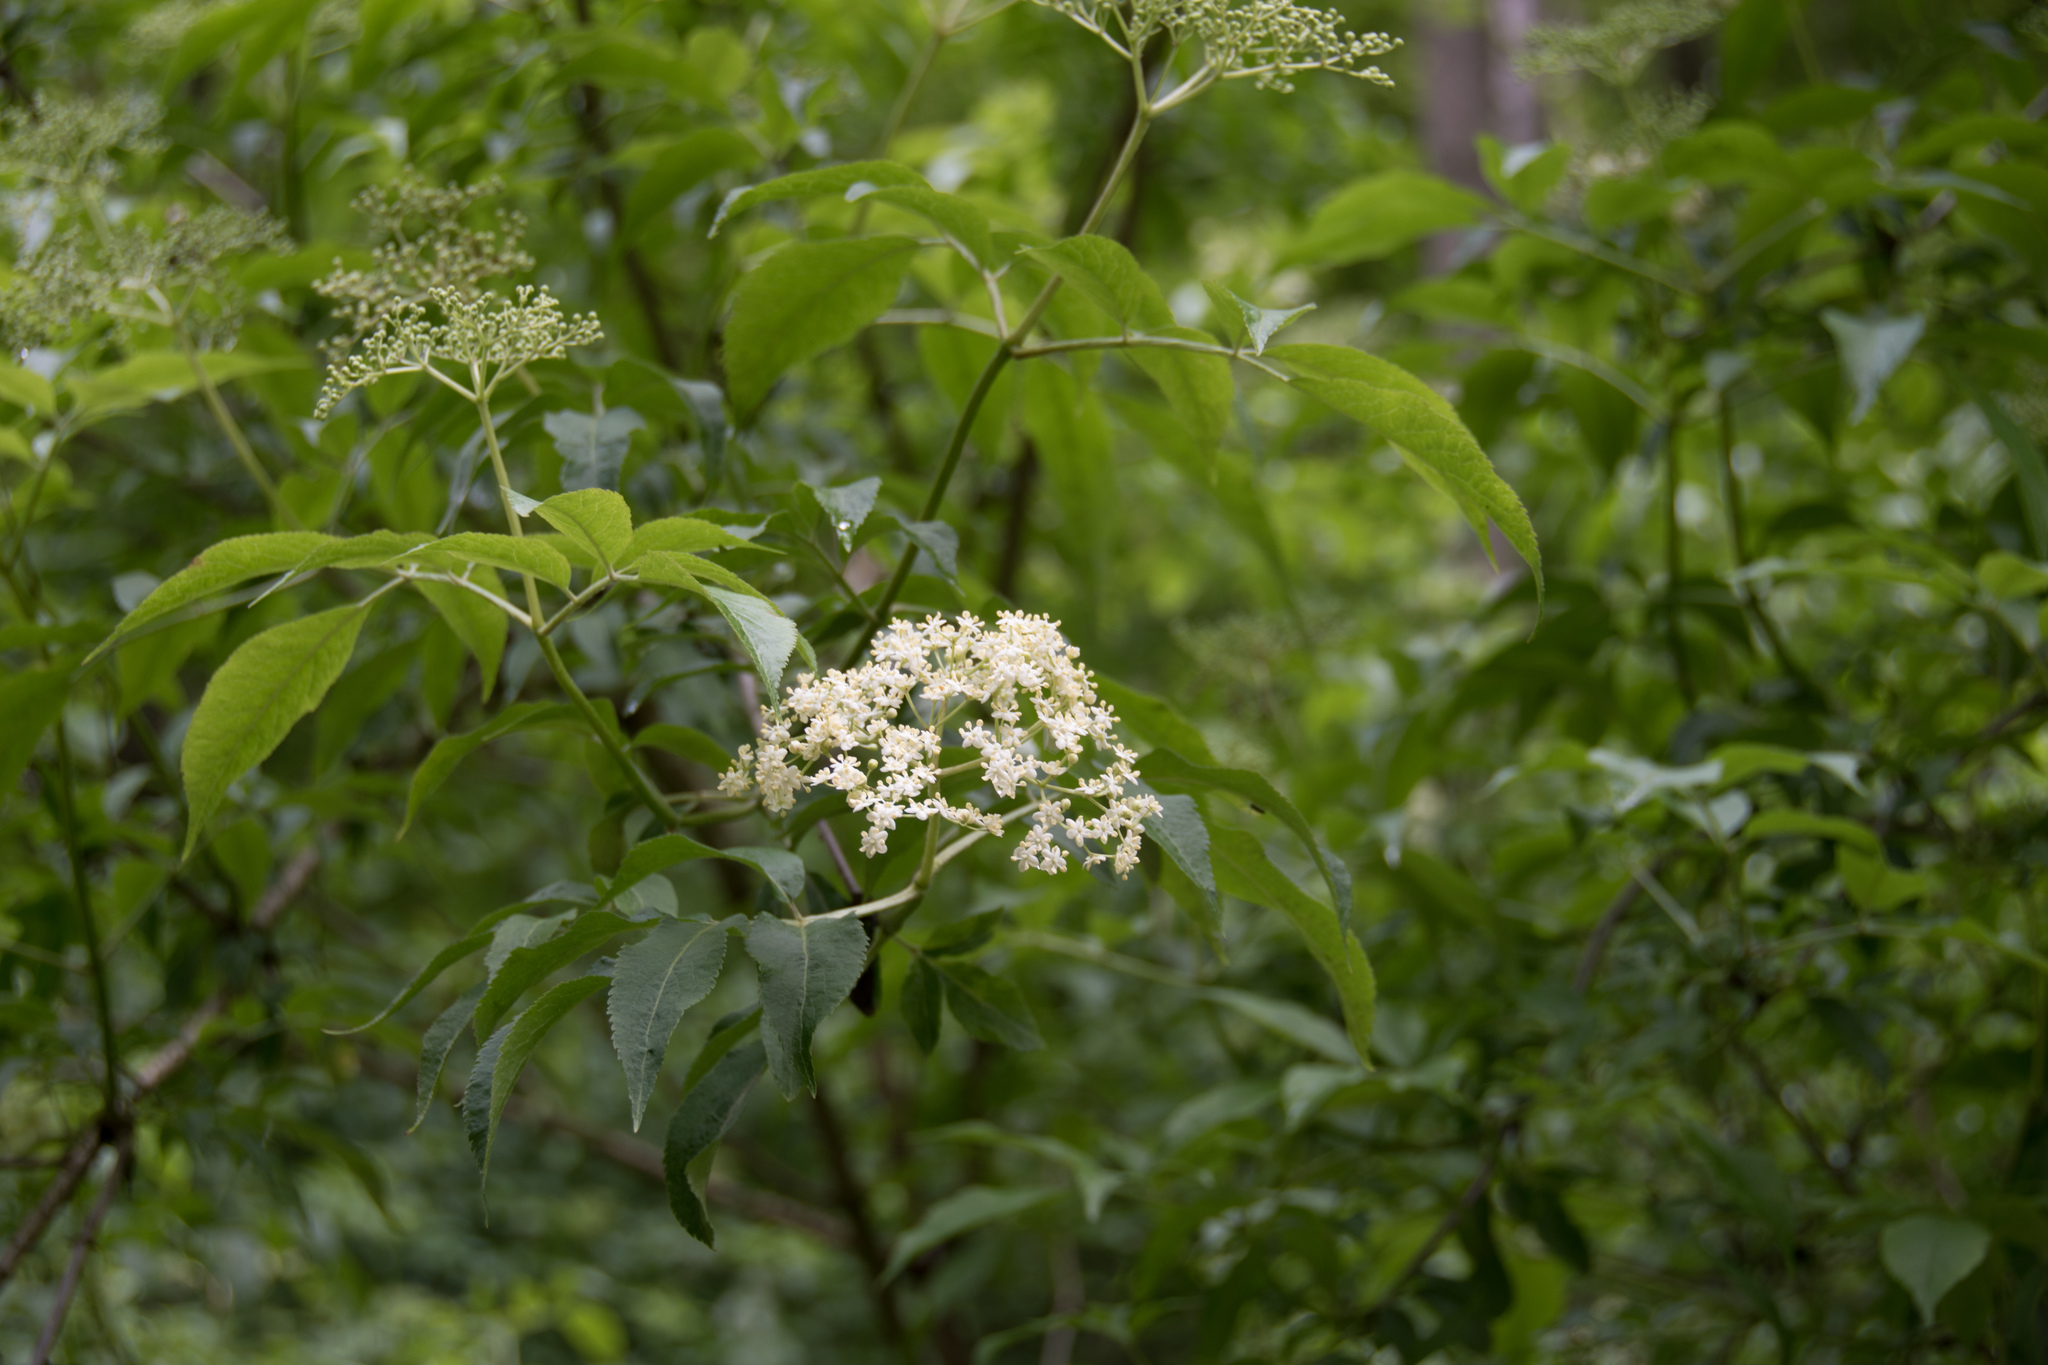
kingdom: Plantae
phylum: Tracheophyta
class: Magnoliopsida
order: Dipsacales
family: Viburnaceae
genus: Sambucus
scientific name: Sambucus nigra
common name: Elder
